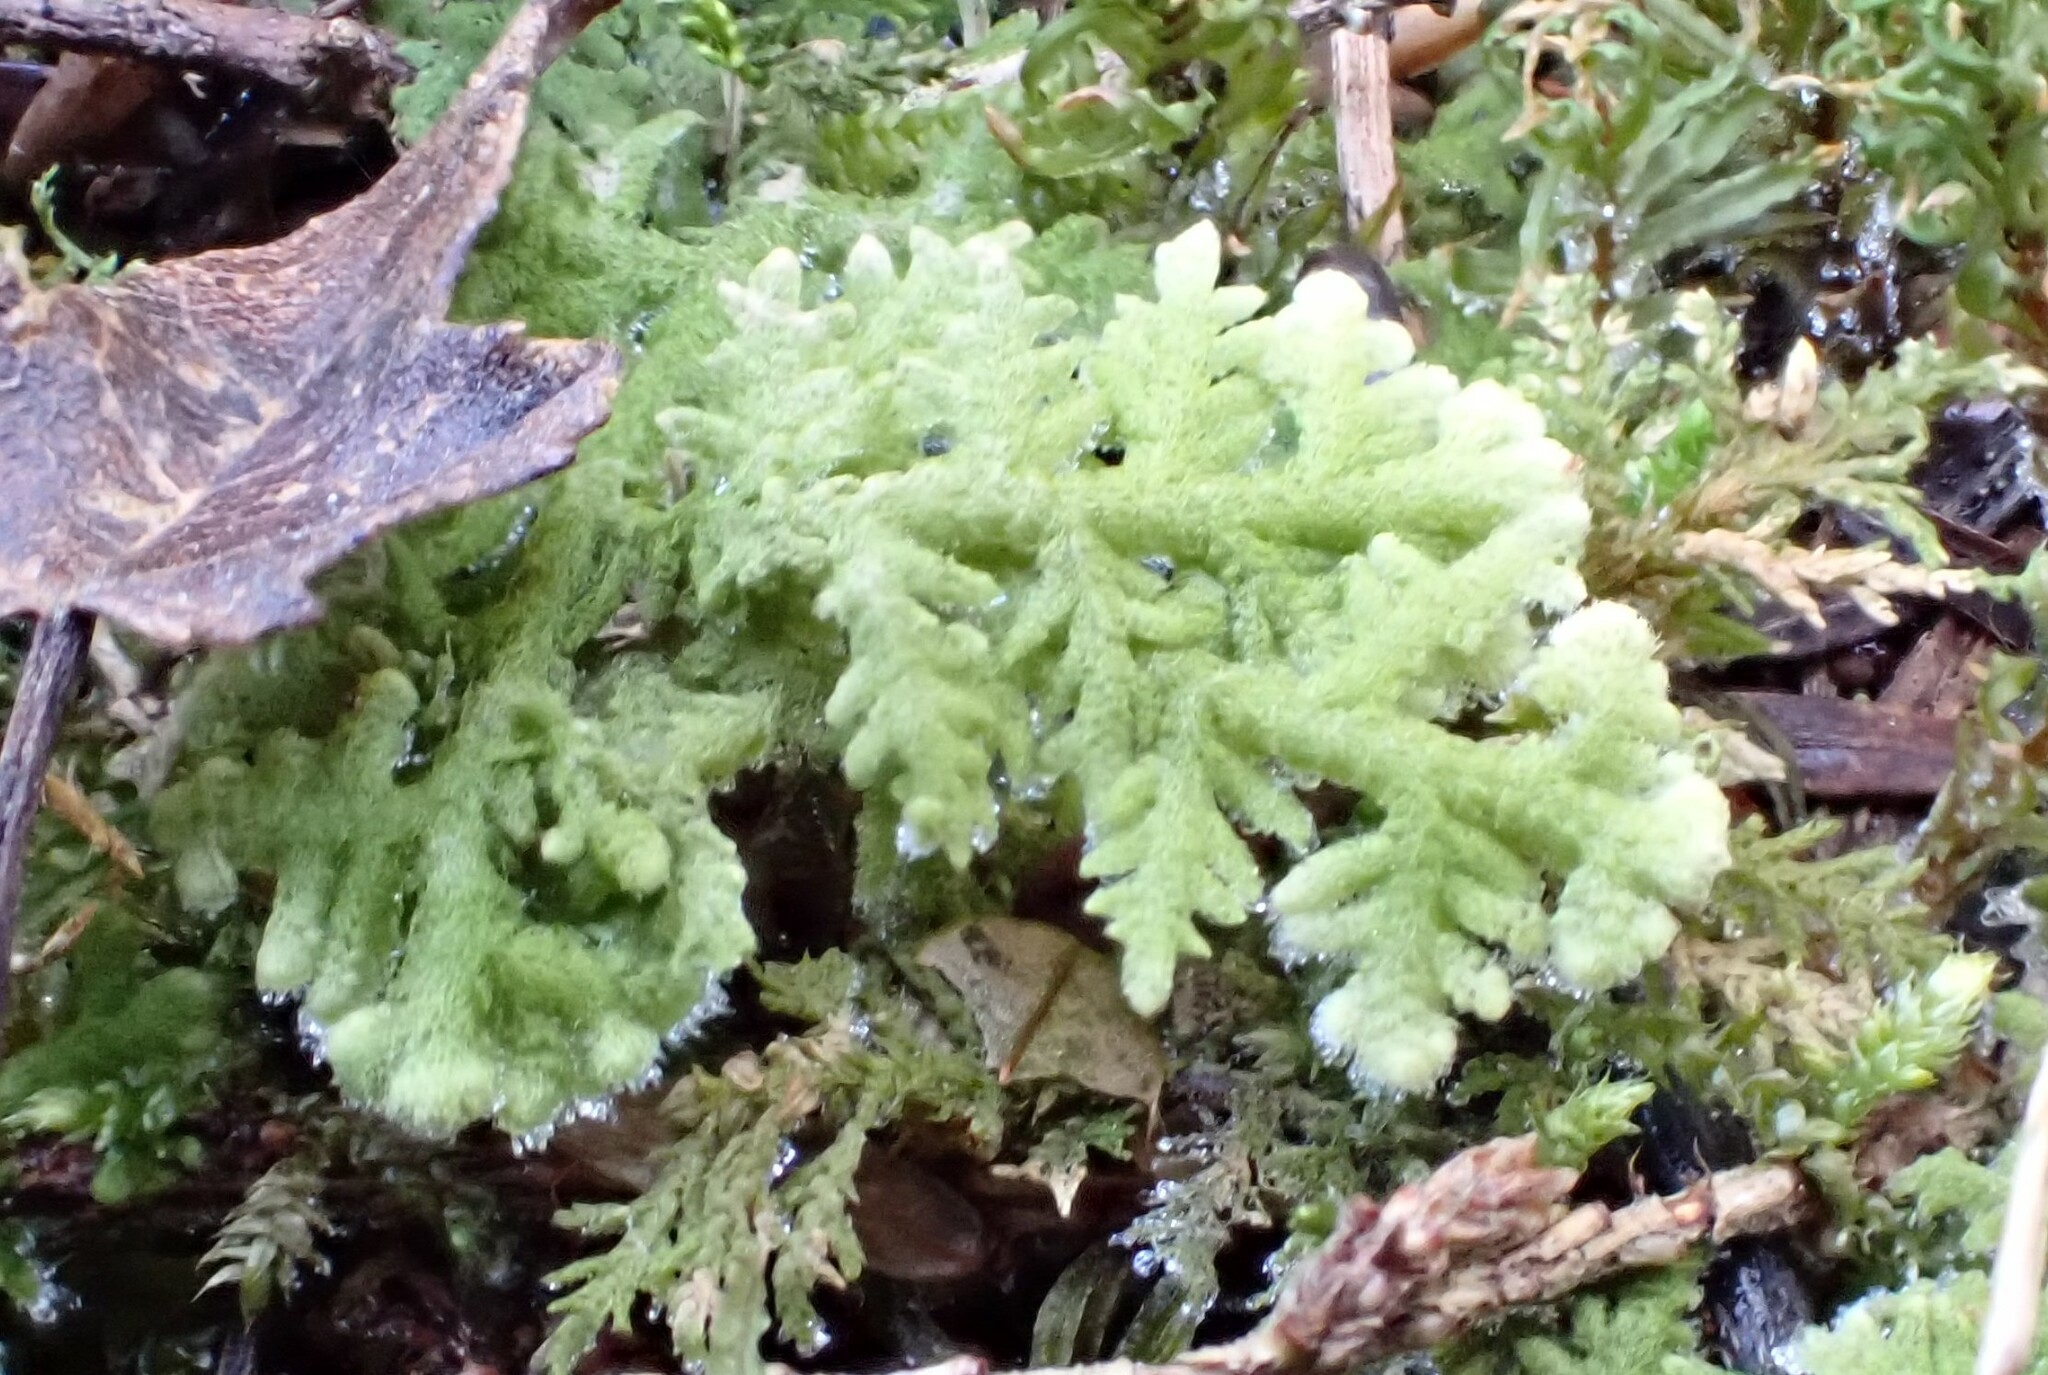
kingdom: Plantae
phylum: Marchantiophyta
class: Jungermanniopsida
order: Jungermanniales
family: Trichocoleaceae
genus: Trichocolea
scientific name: Trichocolea tomentella
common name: Woolly liverwort
